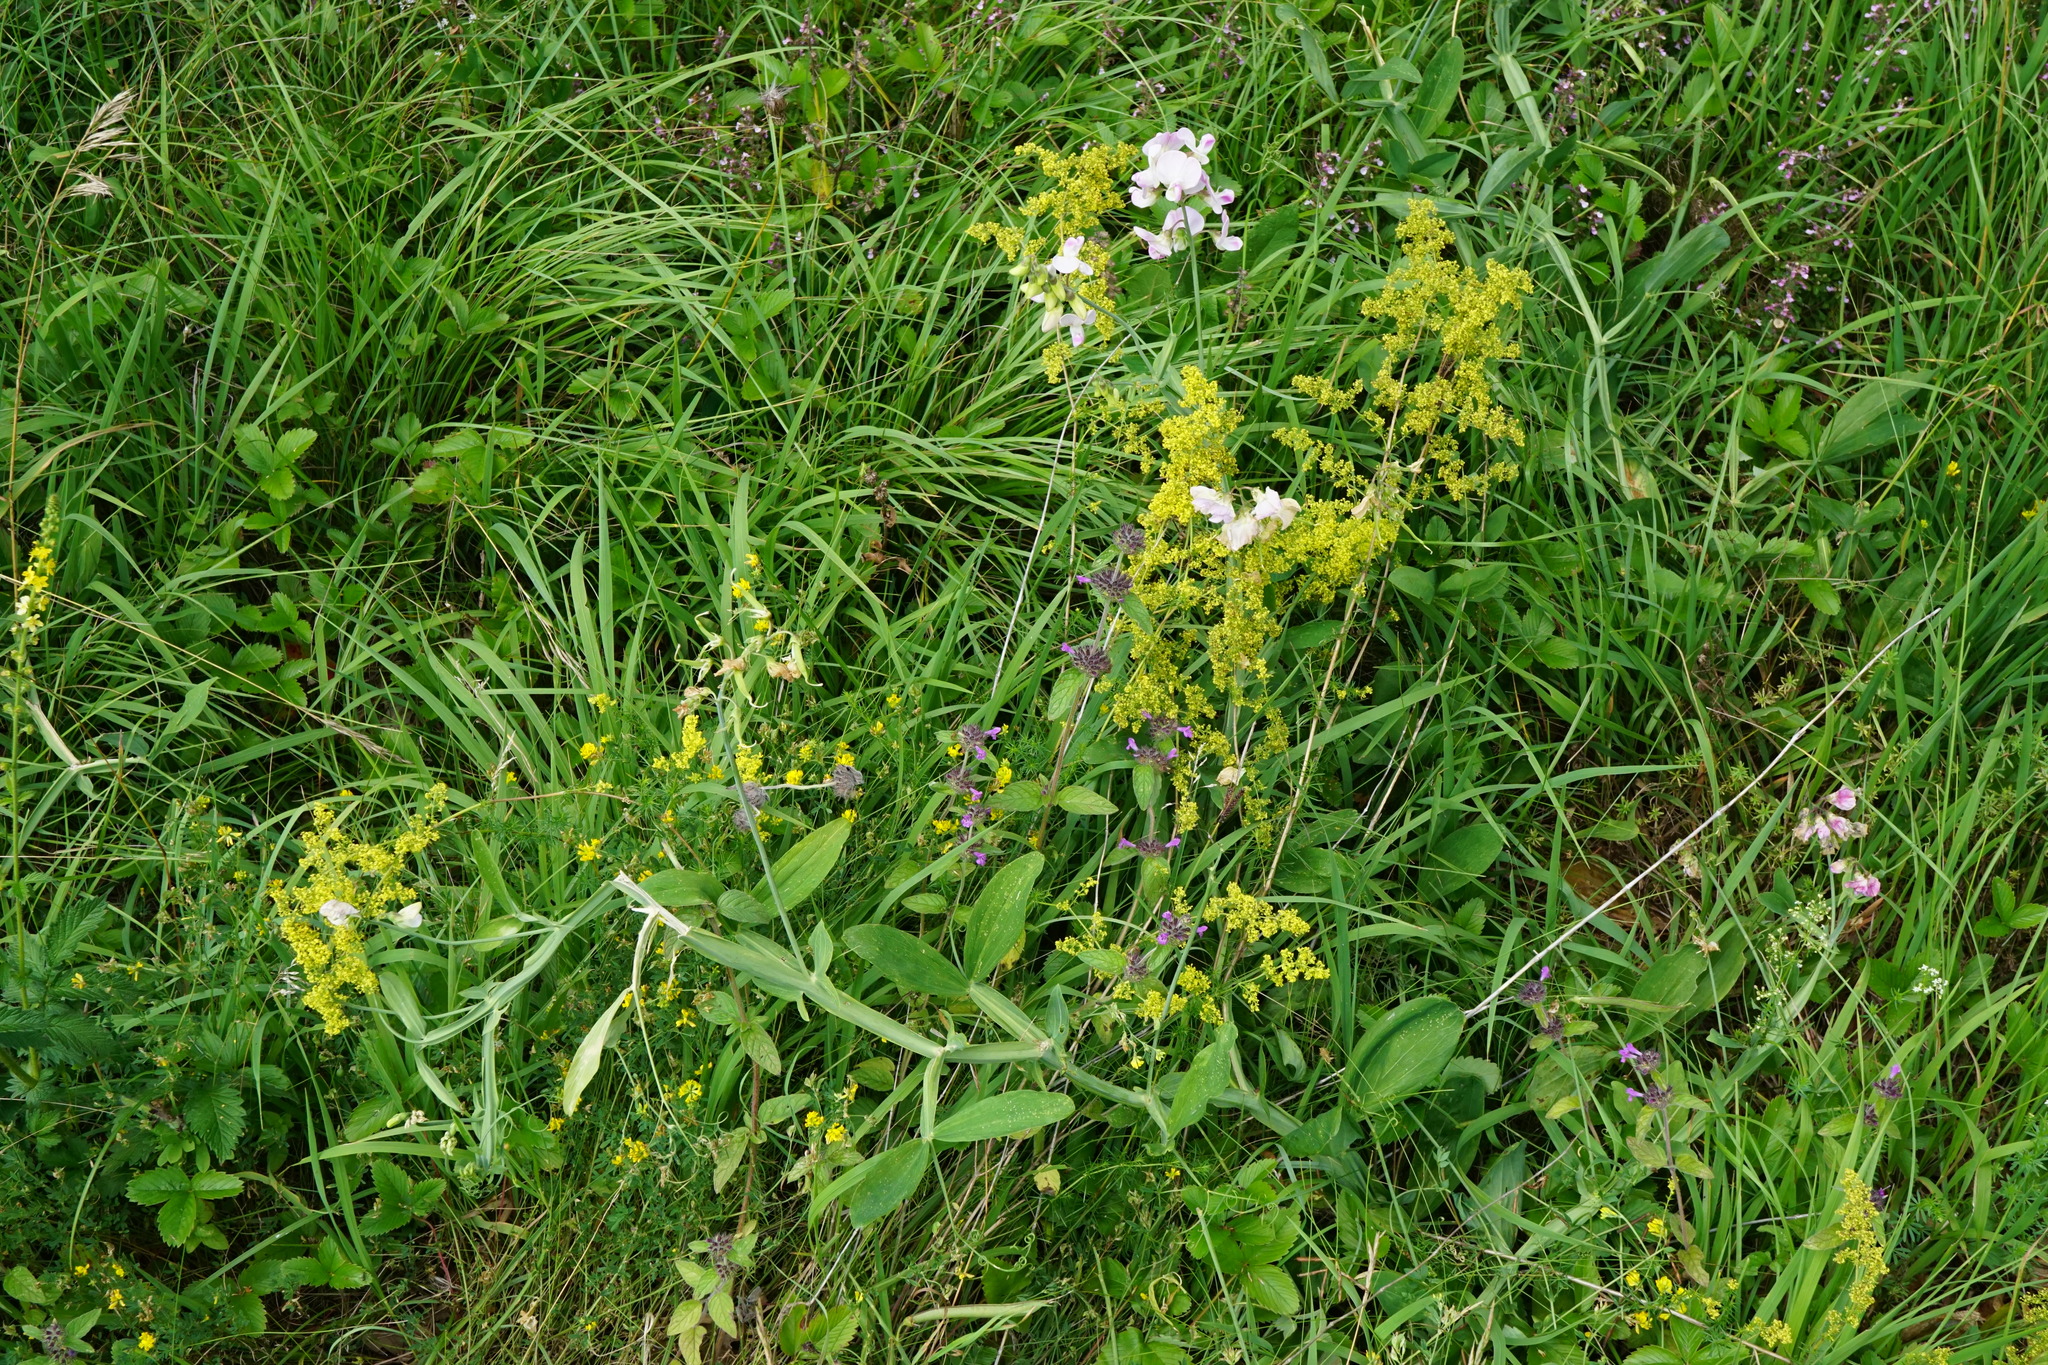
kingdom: Plantae
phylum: Tracheophyta
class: Magnoliopsida
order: Fabales
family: Fabaceae
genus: Lathyrus
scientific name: Lathyrus latifolius
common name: Perennial pea
